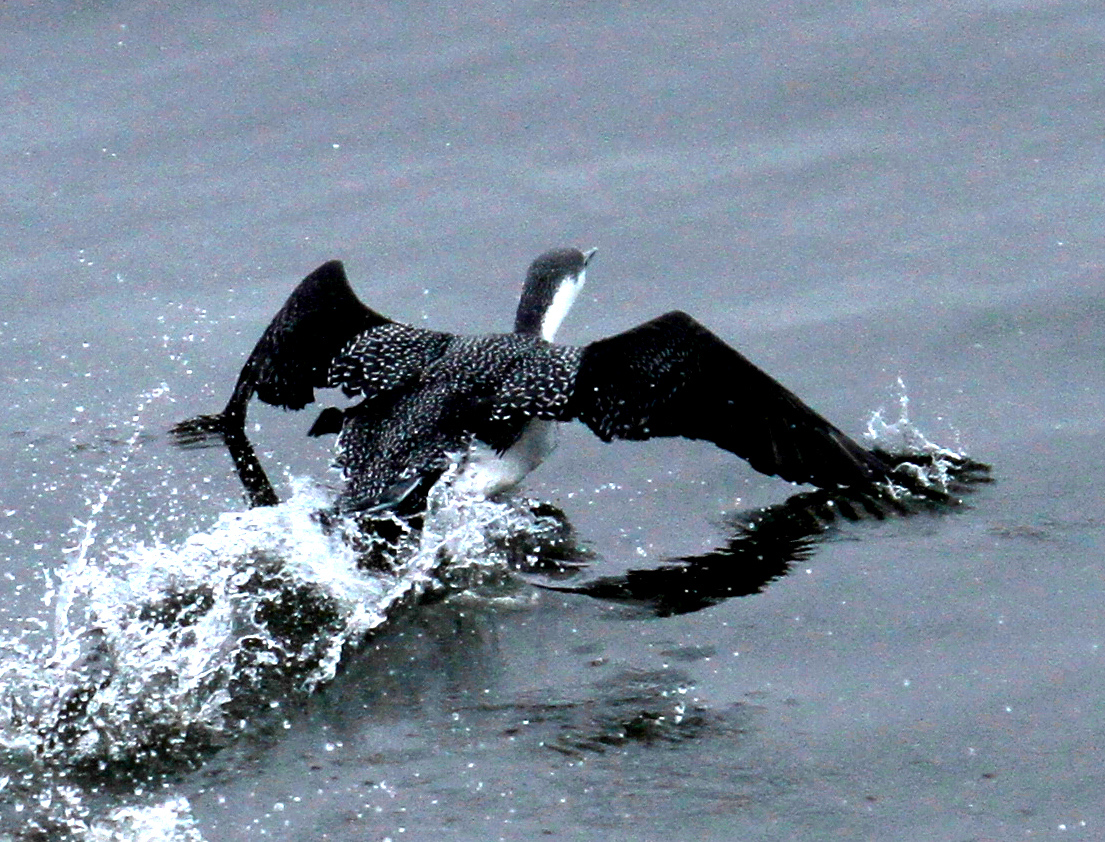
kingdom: Animalia
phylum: Chordata
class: Aves
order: Gaviiformes
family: Gaviidae
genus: Gavia
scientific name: Gavia stellata
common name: Red-throated loon
